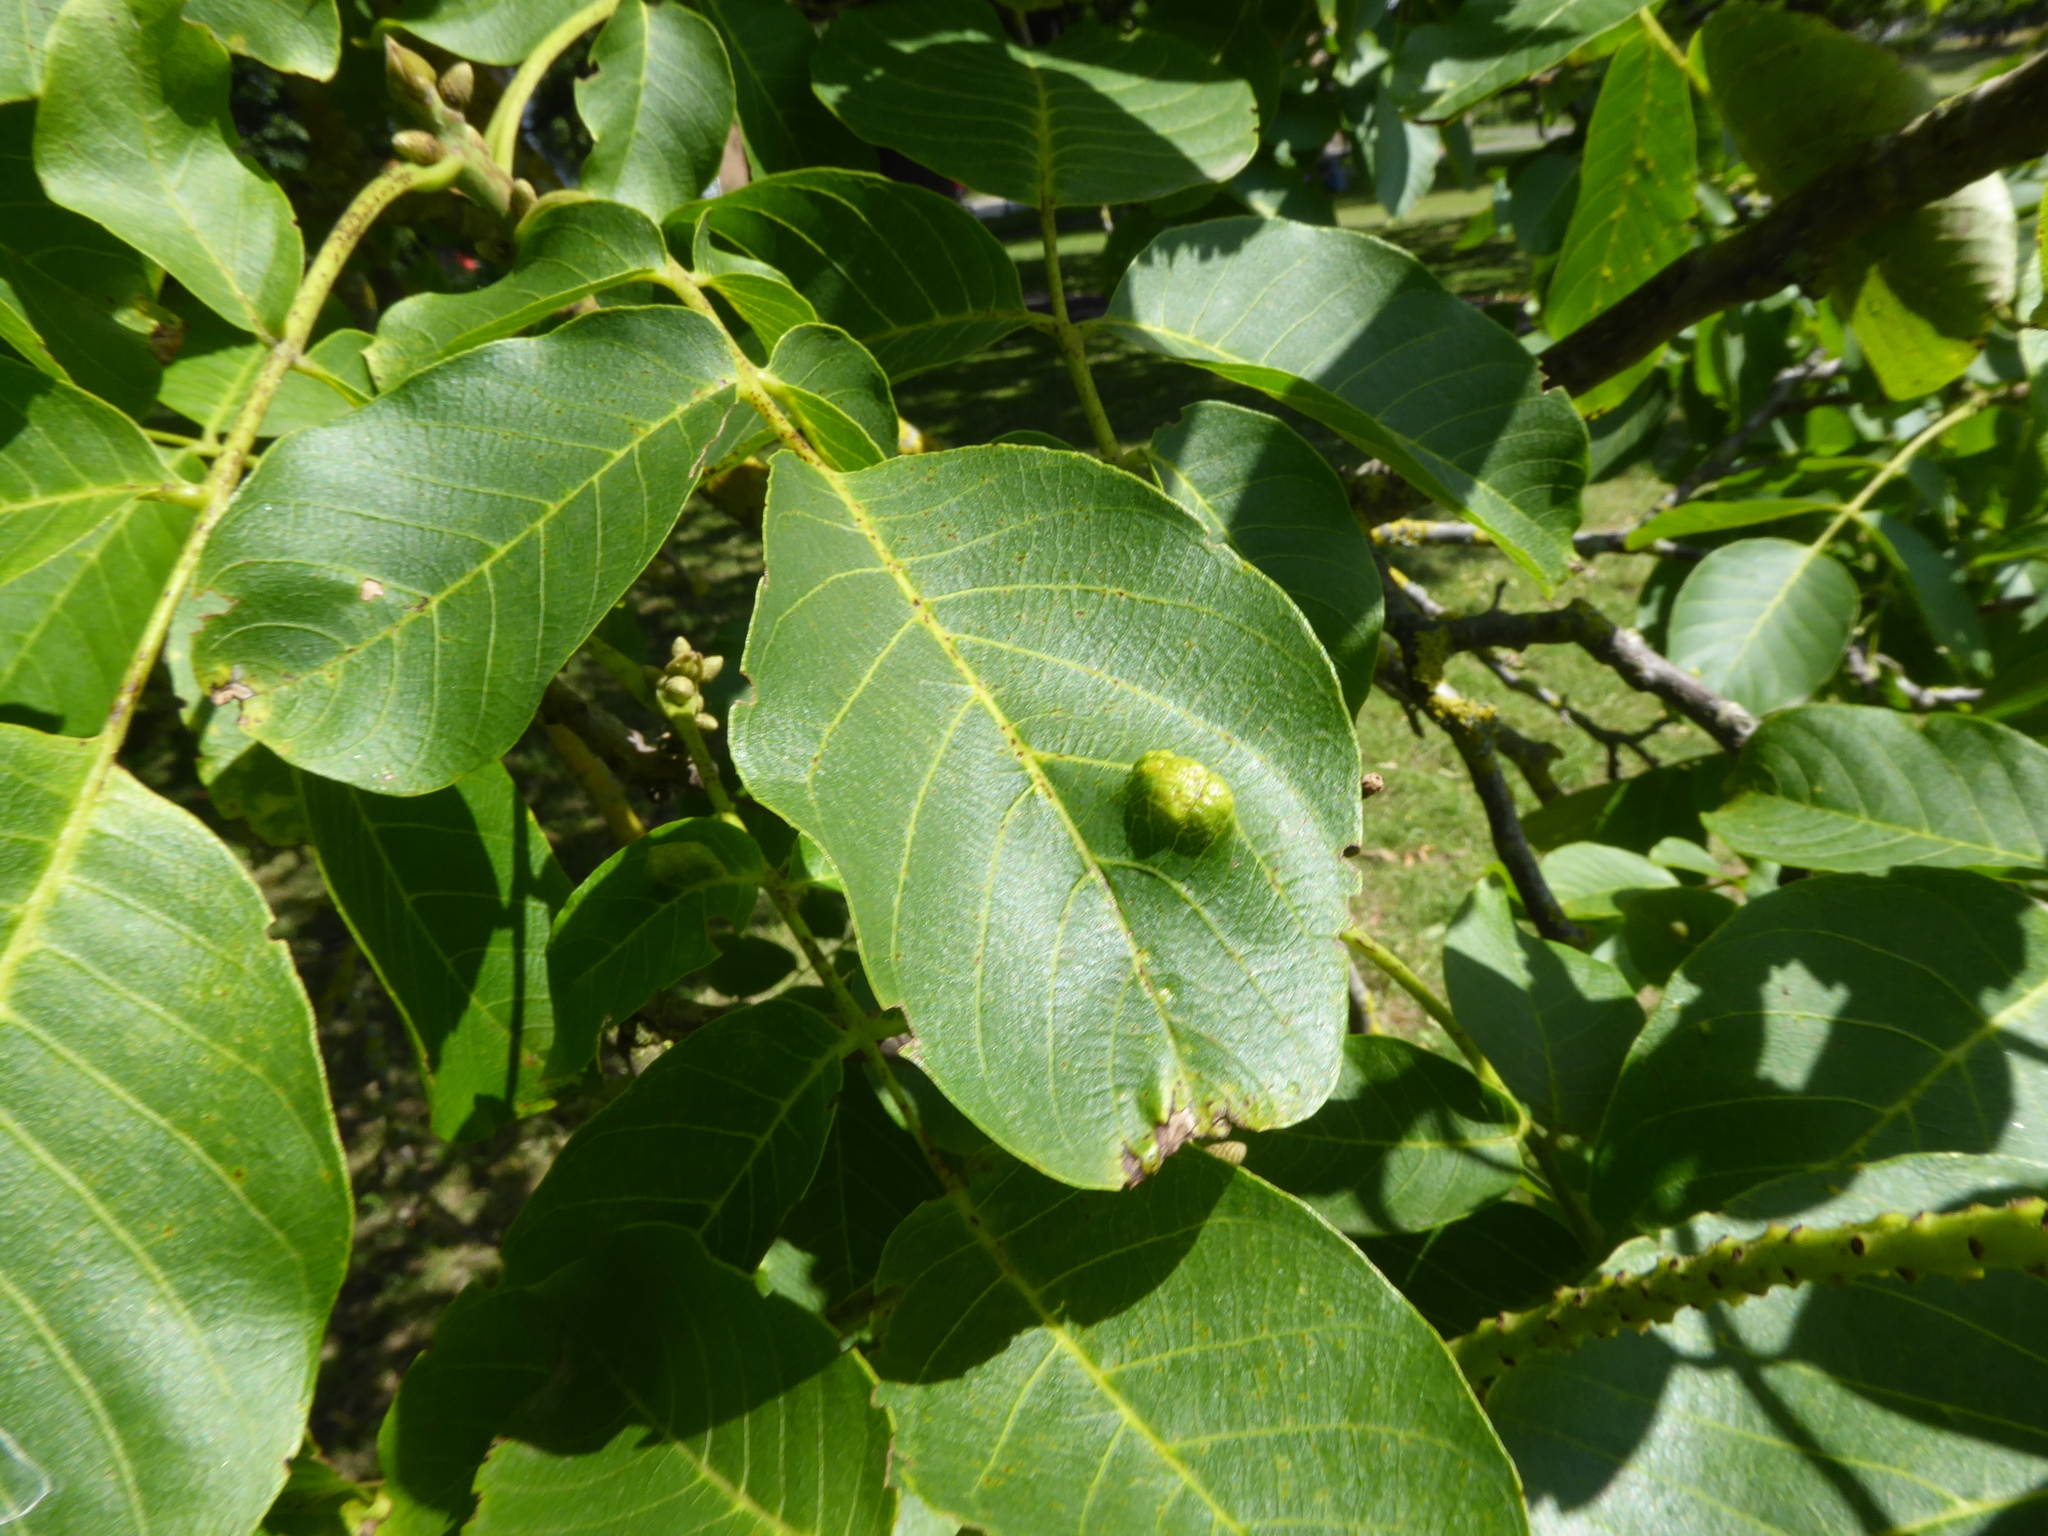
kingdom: Animalia
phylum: Arthropoda
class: Arachnida
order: Trombidiformes
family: Eriophyidae
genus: Aceria
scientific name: Aceria erinea
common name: Persian walnut erineum mite
